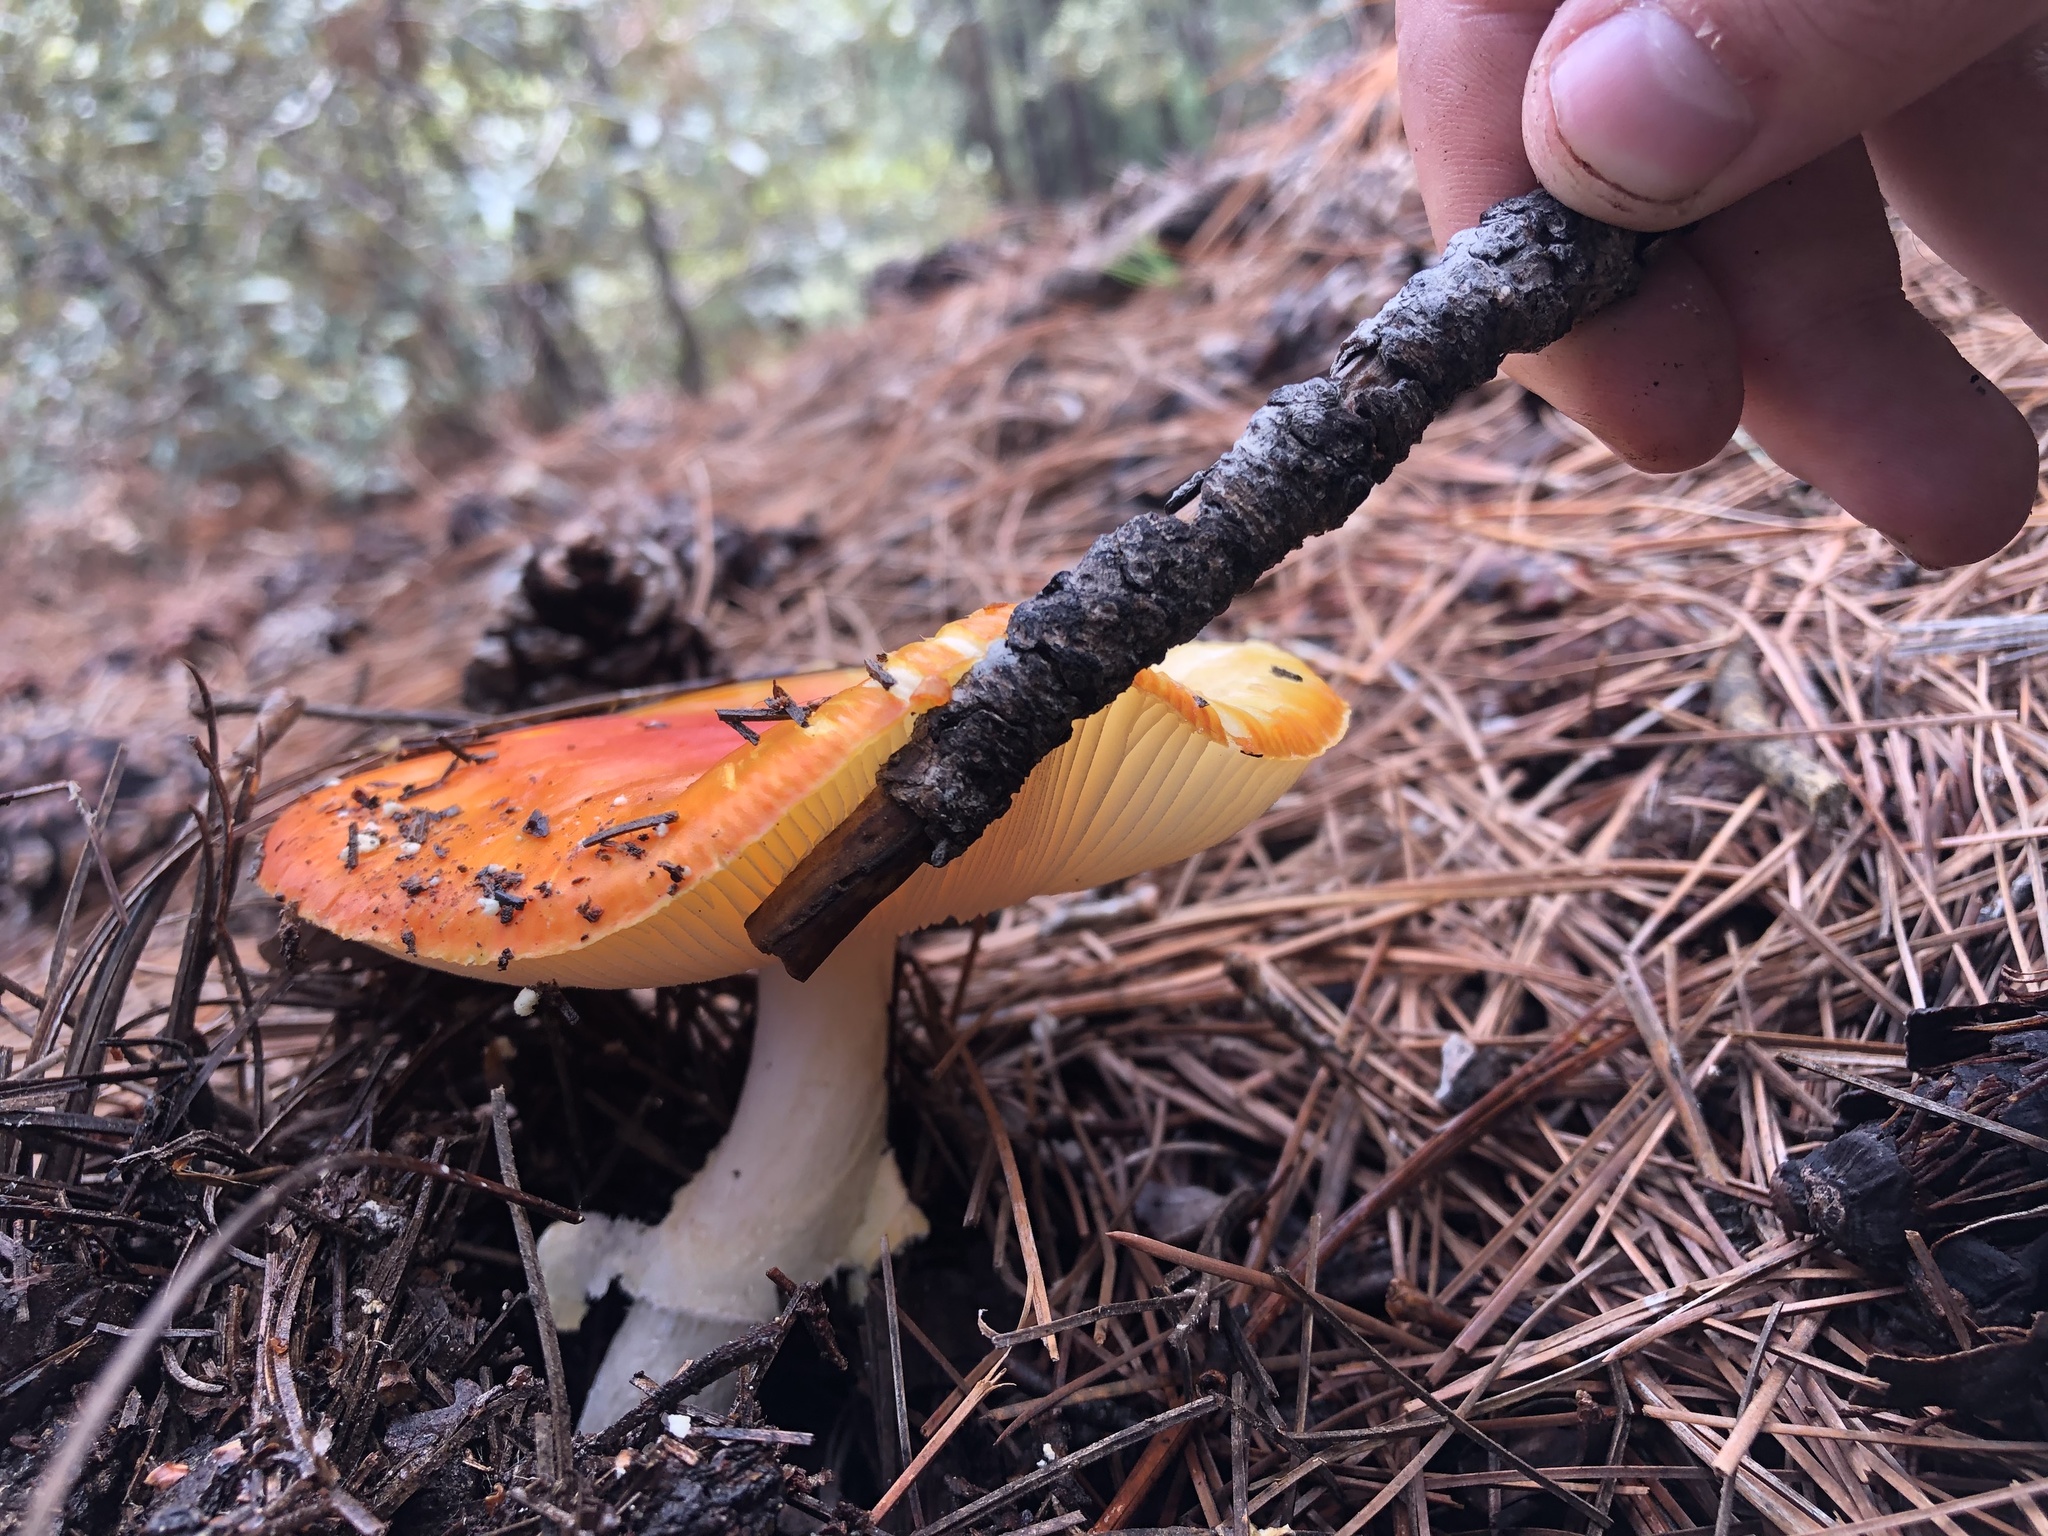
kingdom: Fungi
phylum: Basidiomycota
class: Agaricomycetes
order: Agaricales
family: Amanitaceae
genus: Amanita
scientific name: Amanita muscaria
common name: Fly agaric
